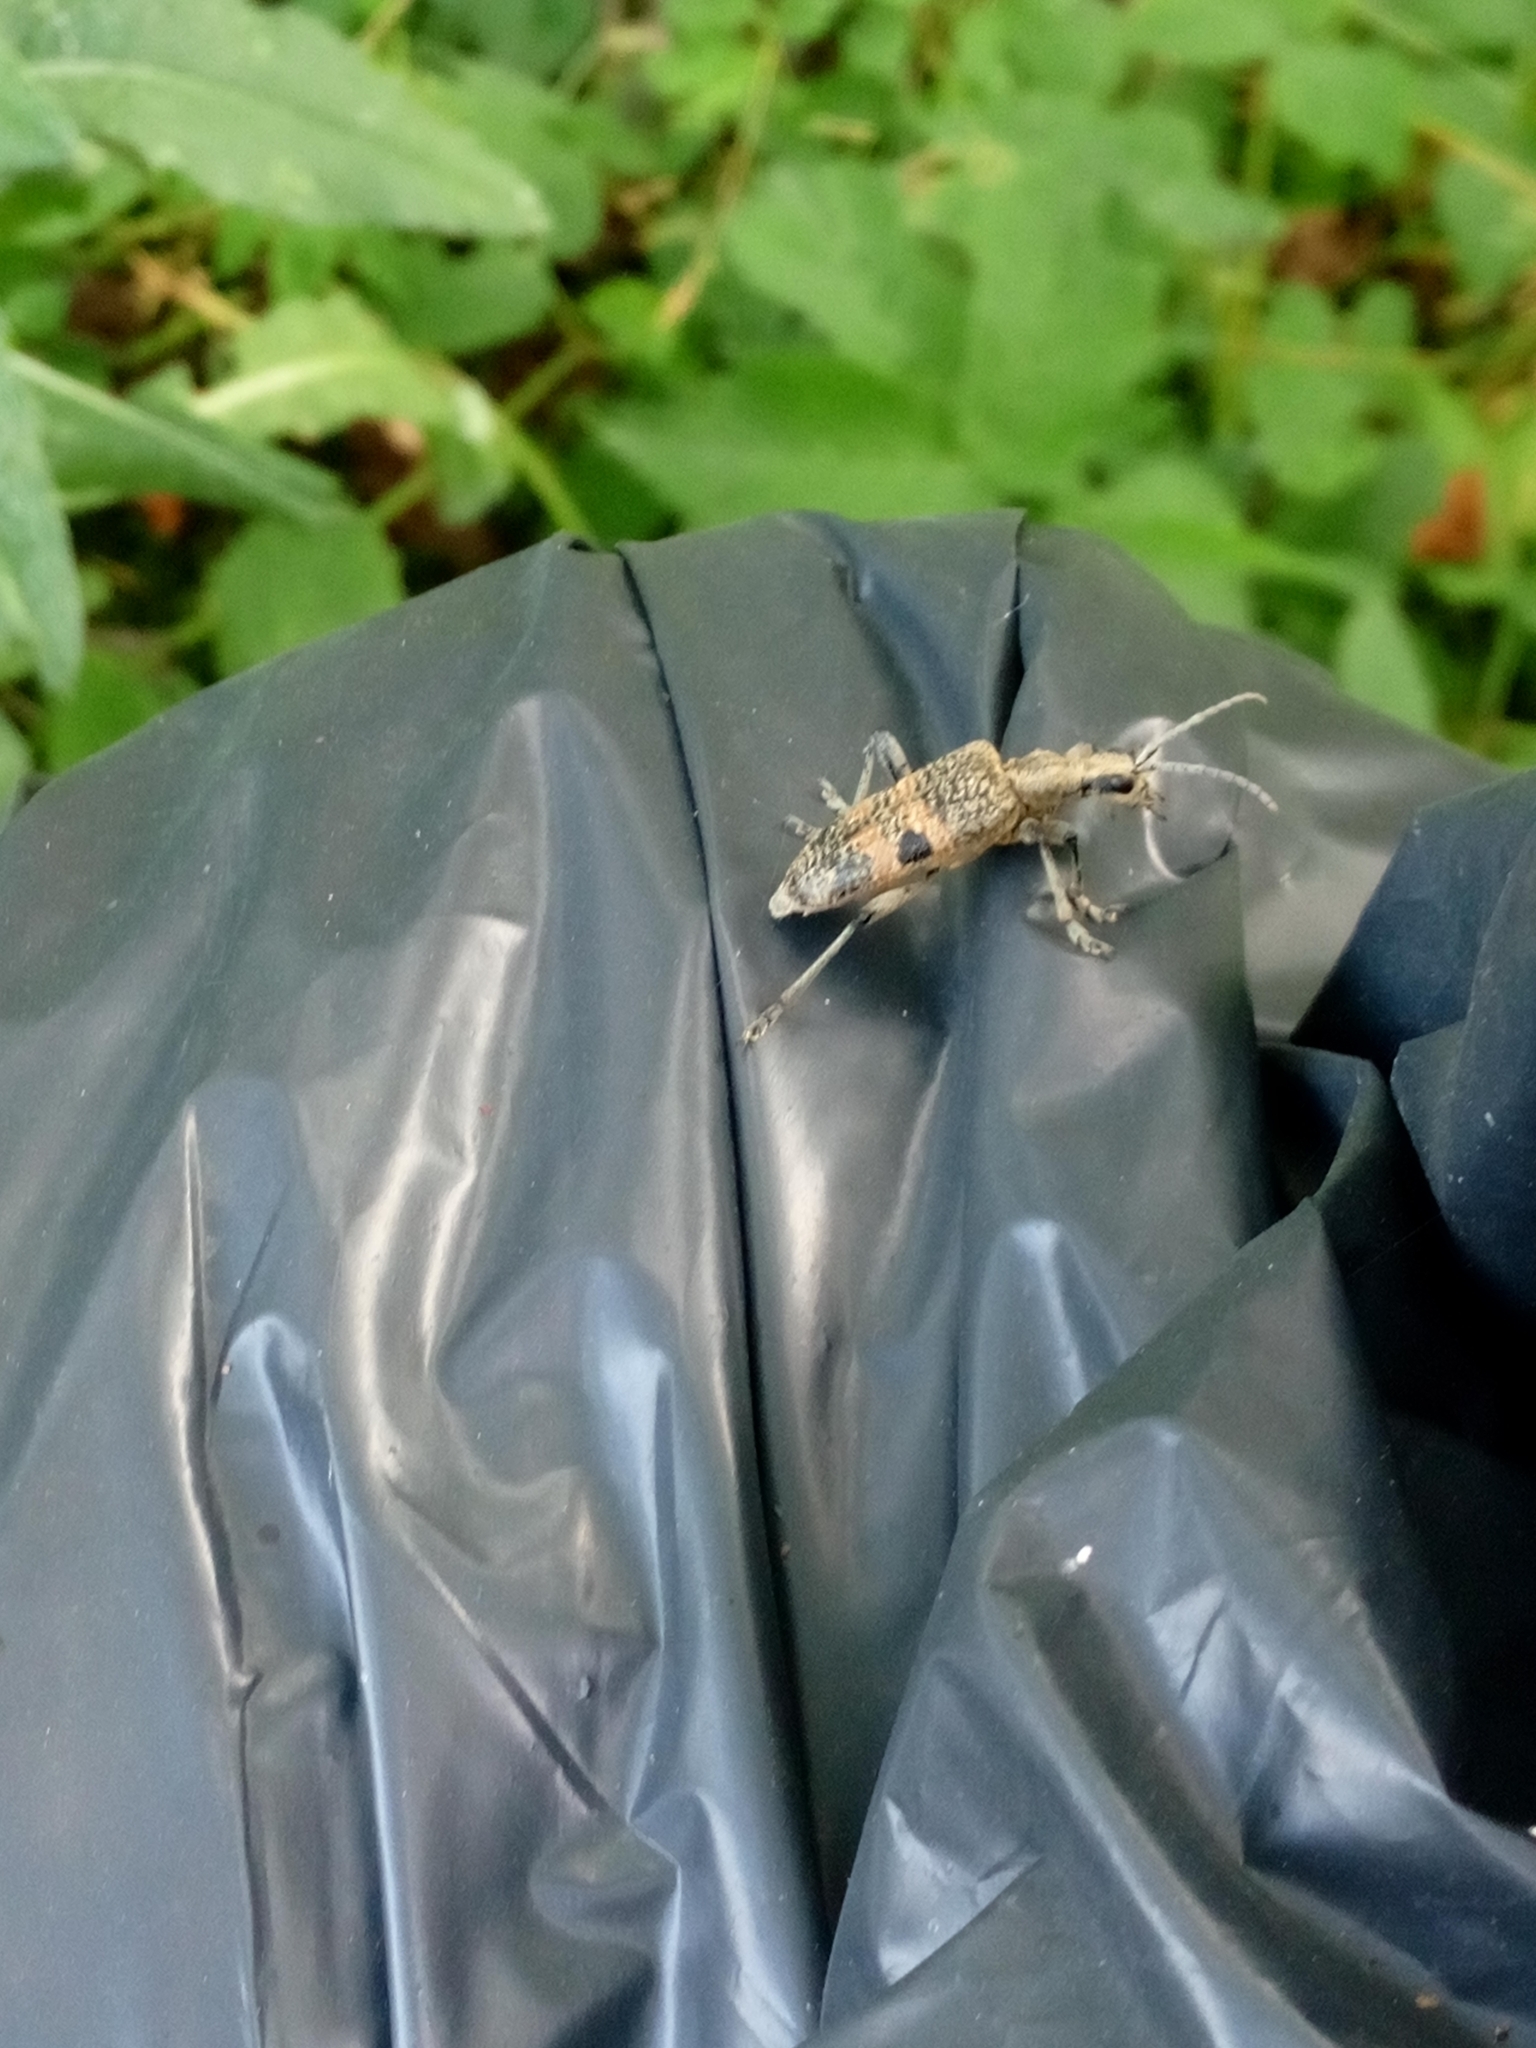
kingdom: Animalia
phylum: Arthropoda
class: Insecta
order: Coleoptera
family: Cerambycidae
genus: Rhagium
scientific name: Rhagium mordax
